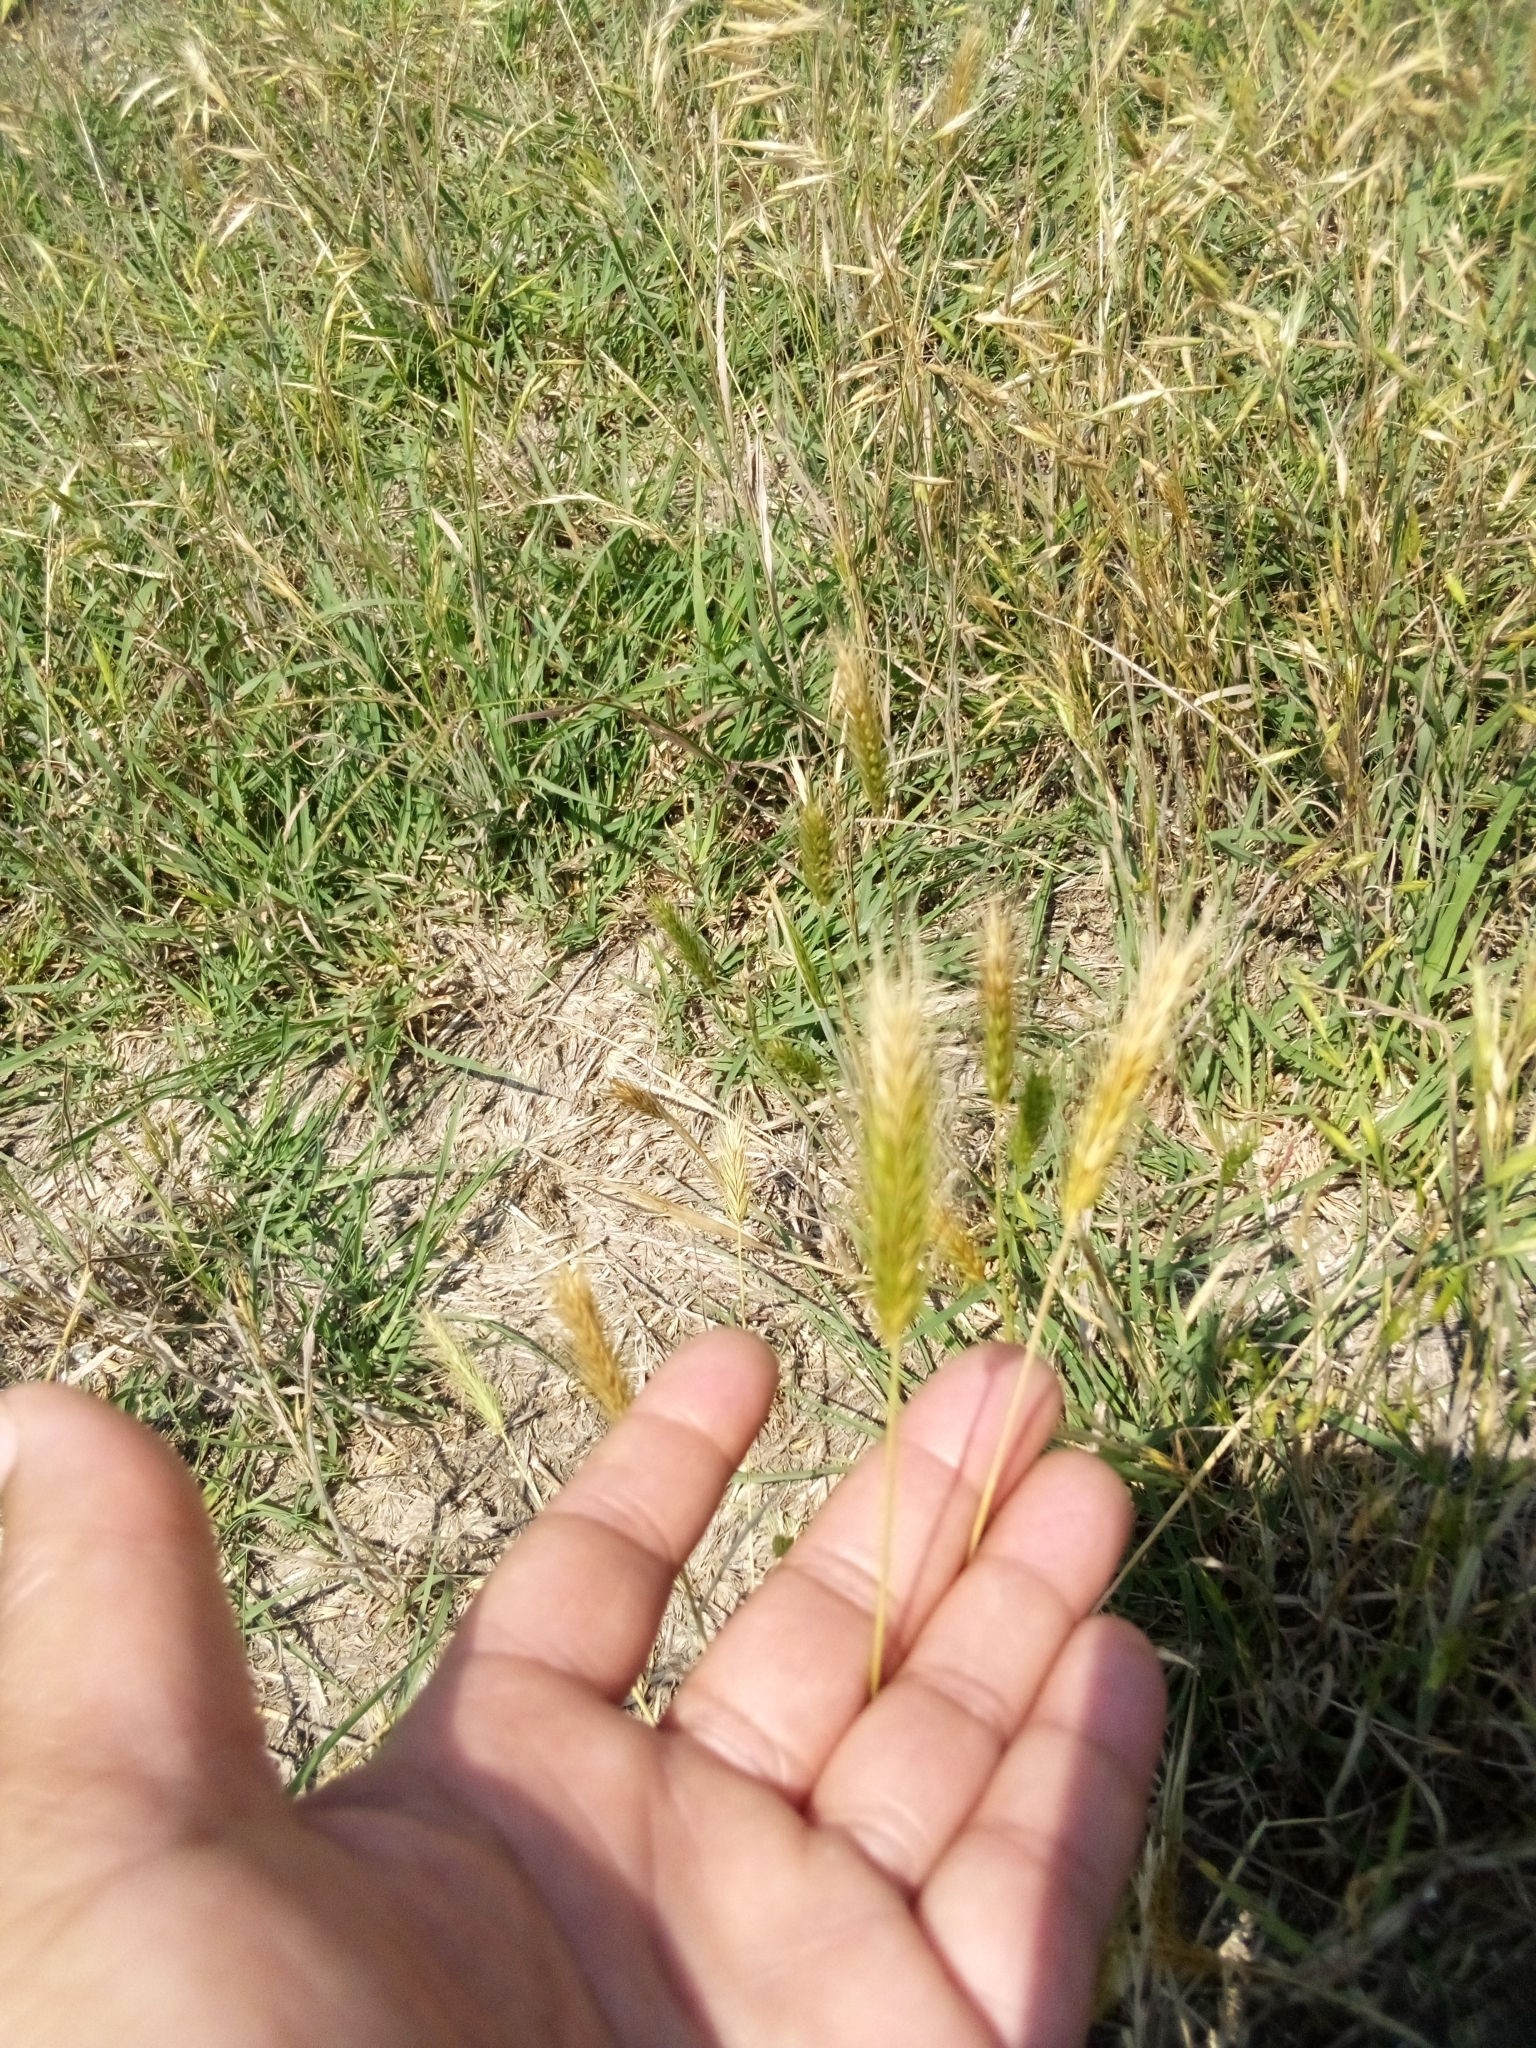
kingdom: Plantae
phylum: Tracheophyta
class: Liliopsida
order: Poales
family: Poaceae
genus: Hordeum
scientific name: Hordeum pusillum
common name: Little barley
